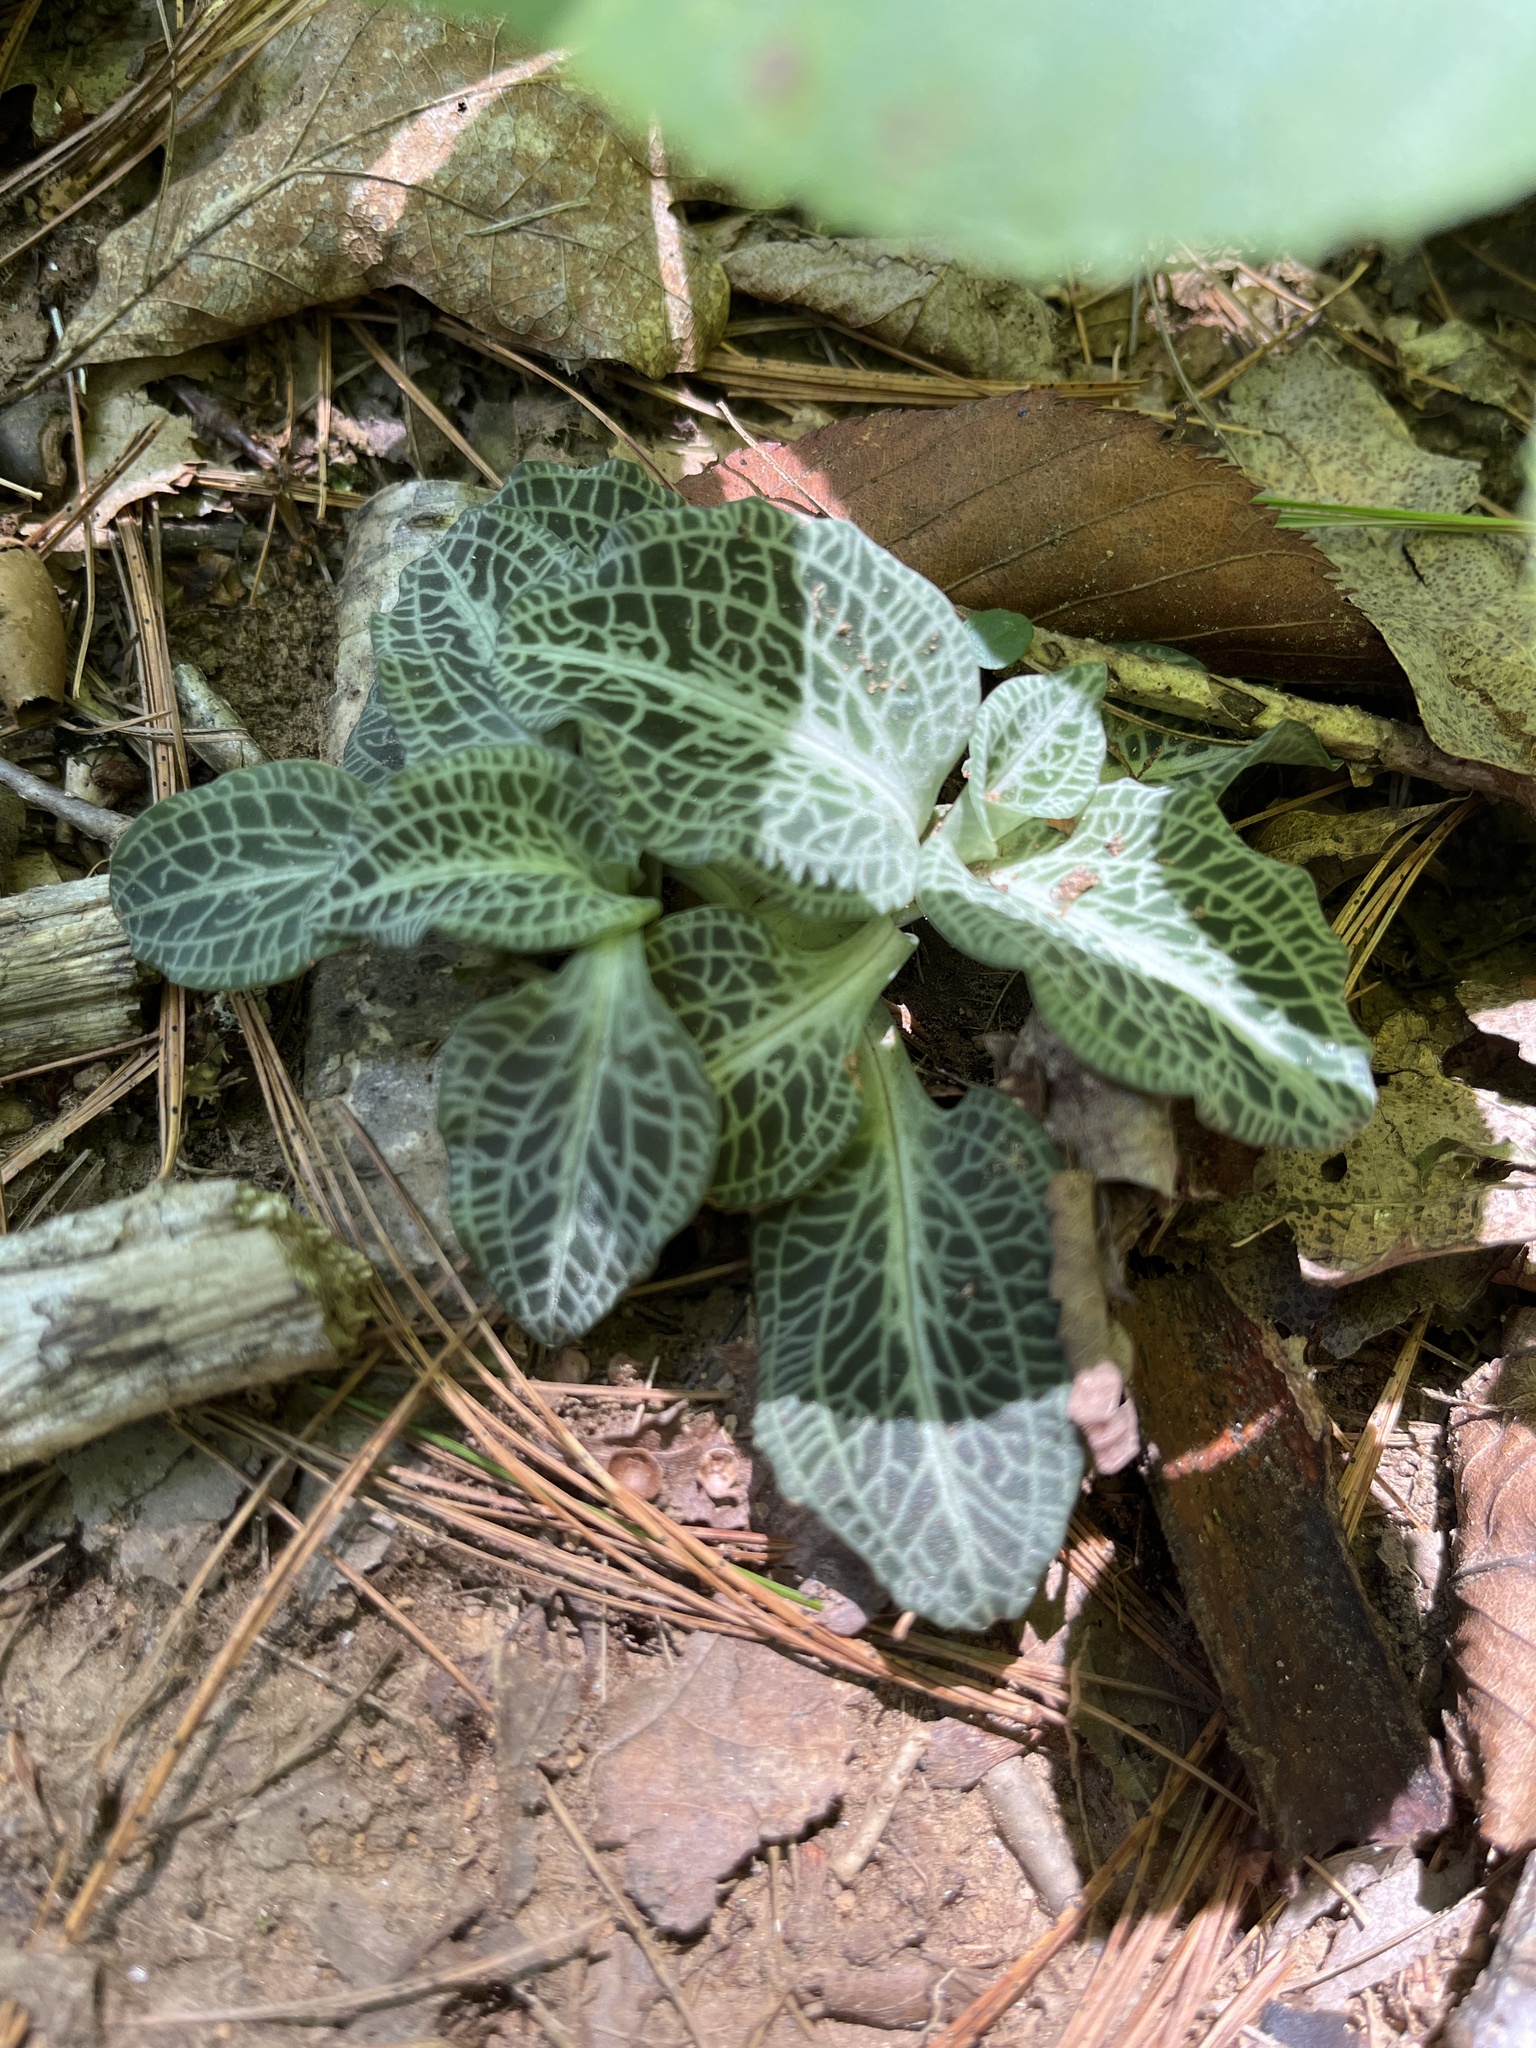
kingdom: Plantae
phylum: Tracheophyta
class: Liliopsida
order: Asparagales
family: Orchidaceae
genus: Goodyera
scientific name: Goodyera pubescens
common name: Downy rattlesnake-plantain
